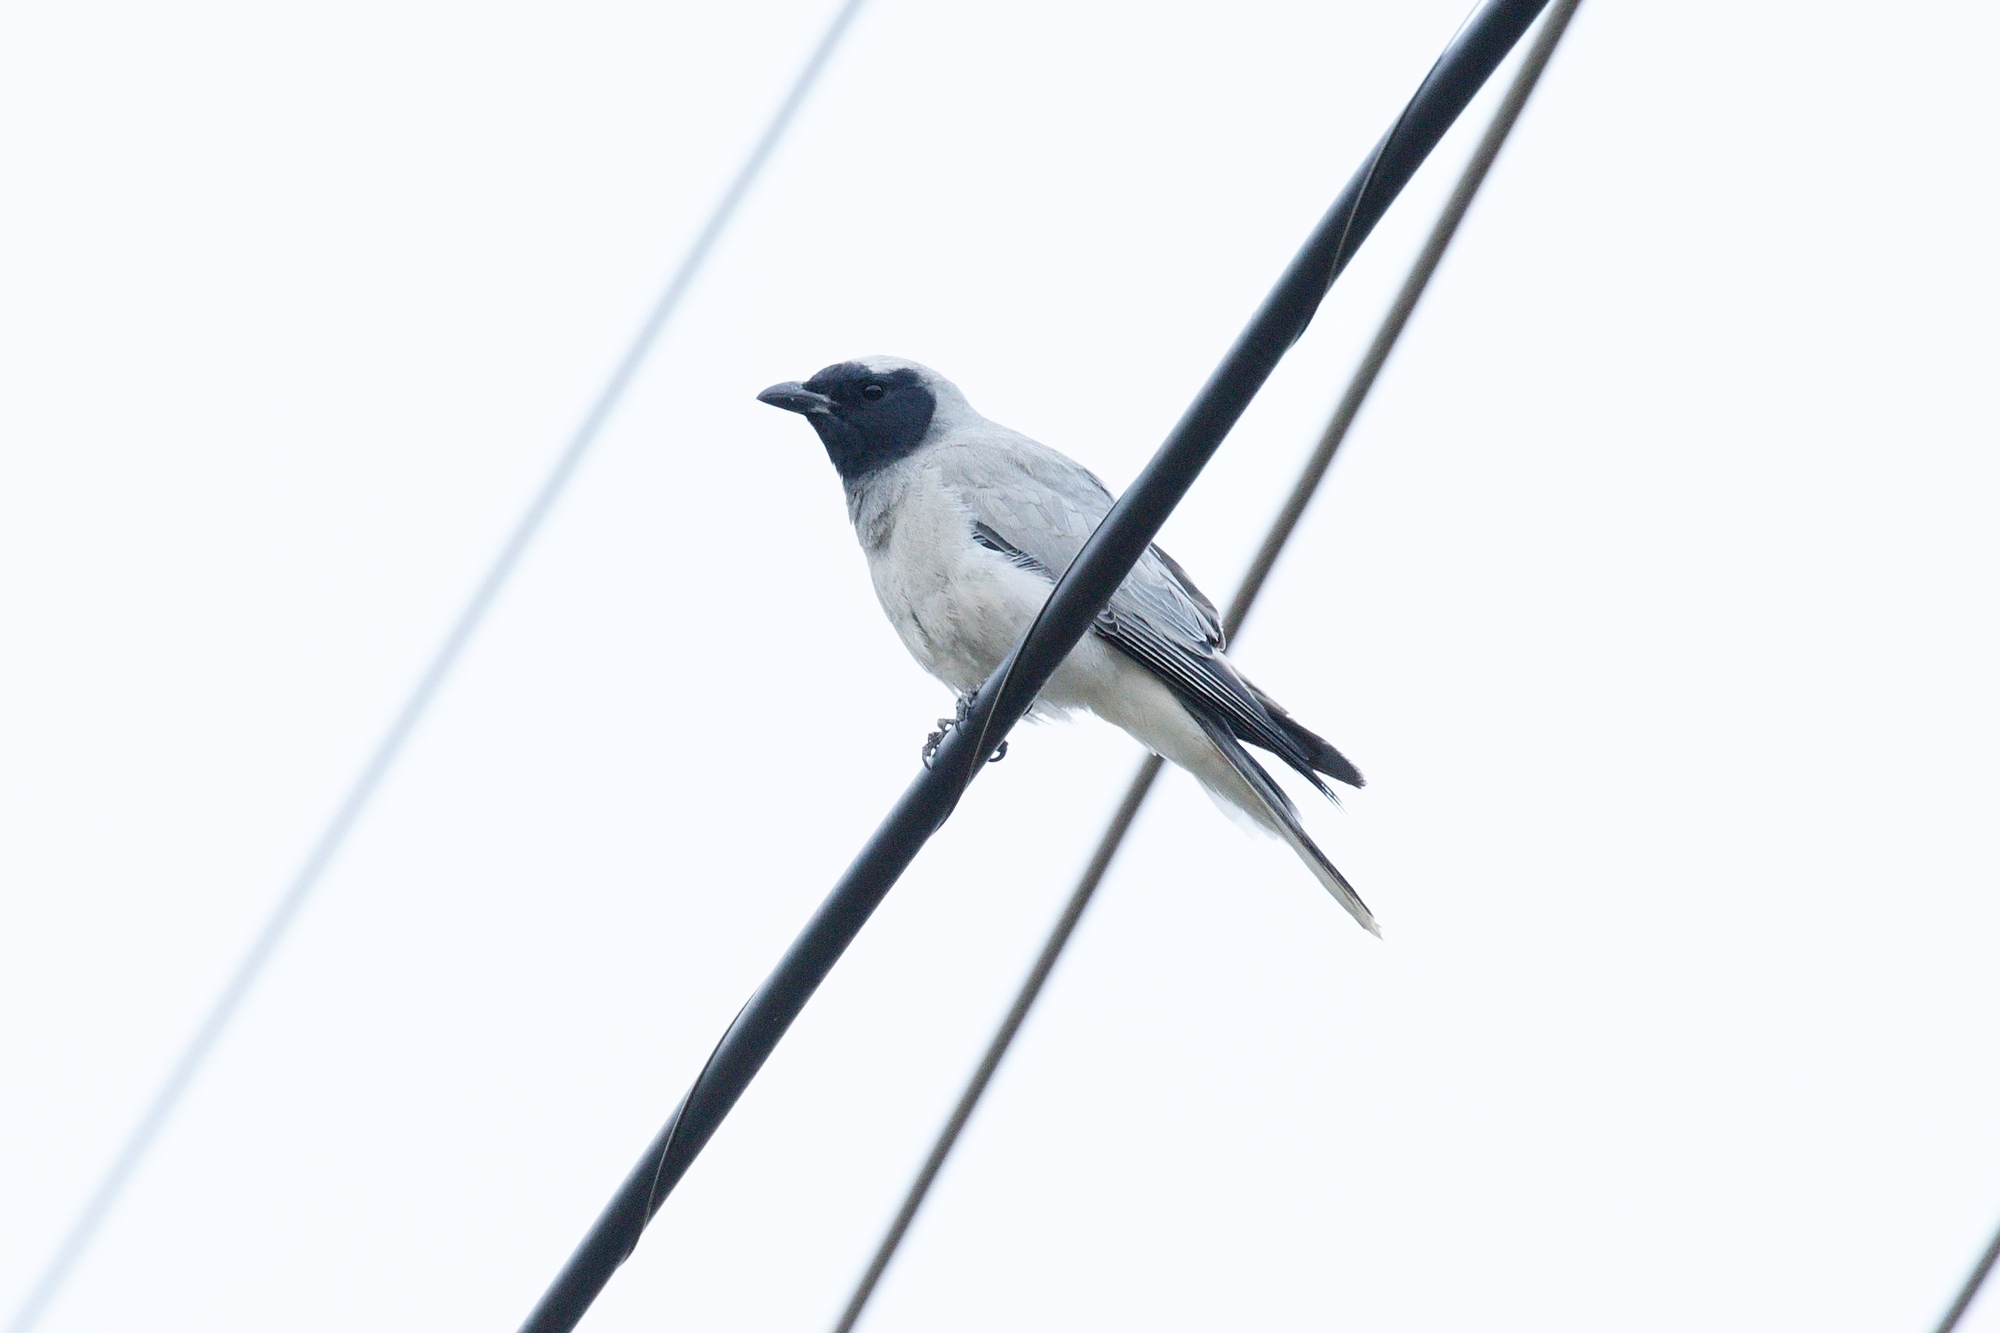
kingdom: Animalia
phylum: Chordata
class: Aves
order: Passeriformes
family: Campephagidae
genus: Coracina
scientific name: Coracina novaehollandiae
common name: Black-faced cuckooshrike
